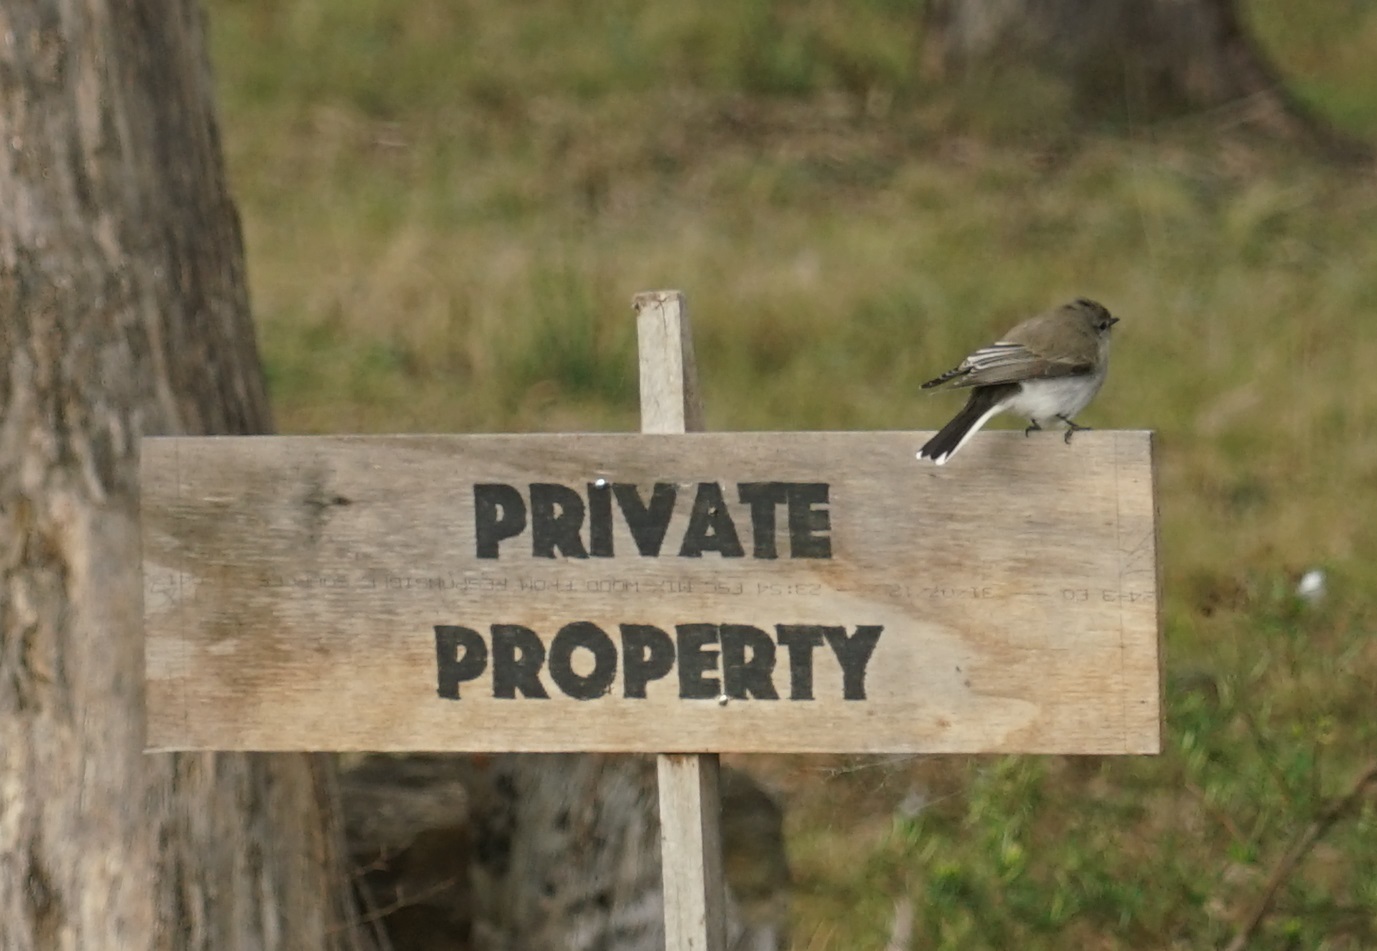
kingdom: Animalia
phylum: Chordata
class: Aves
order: Passeriformes
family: Petroicidae
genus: Microeca
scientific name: Microeca fascinans
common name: Jacky winter
